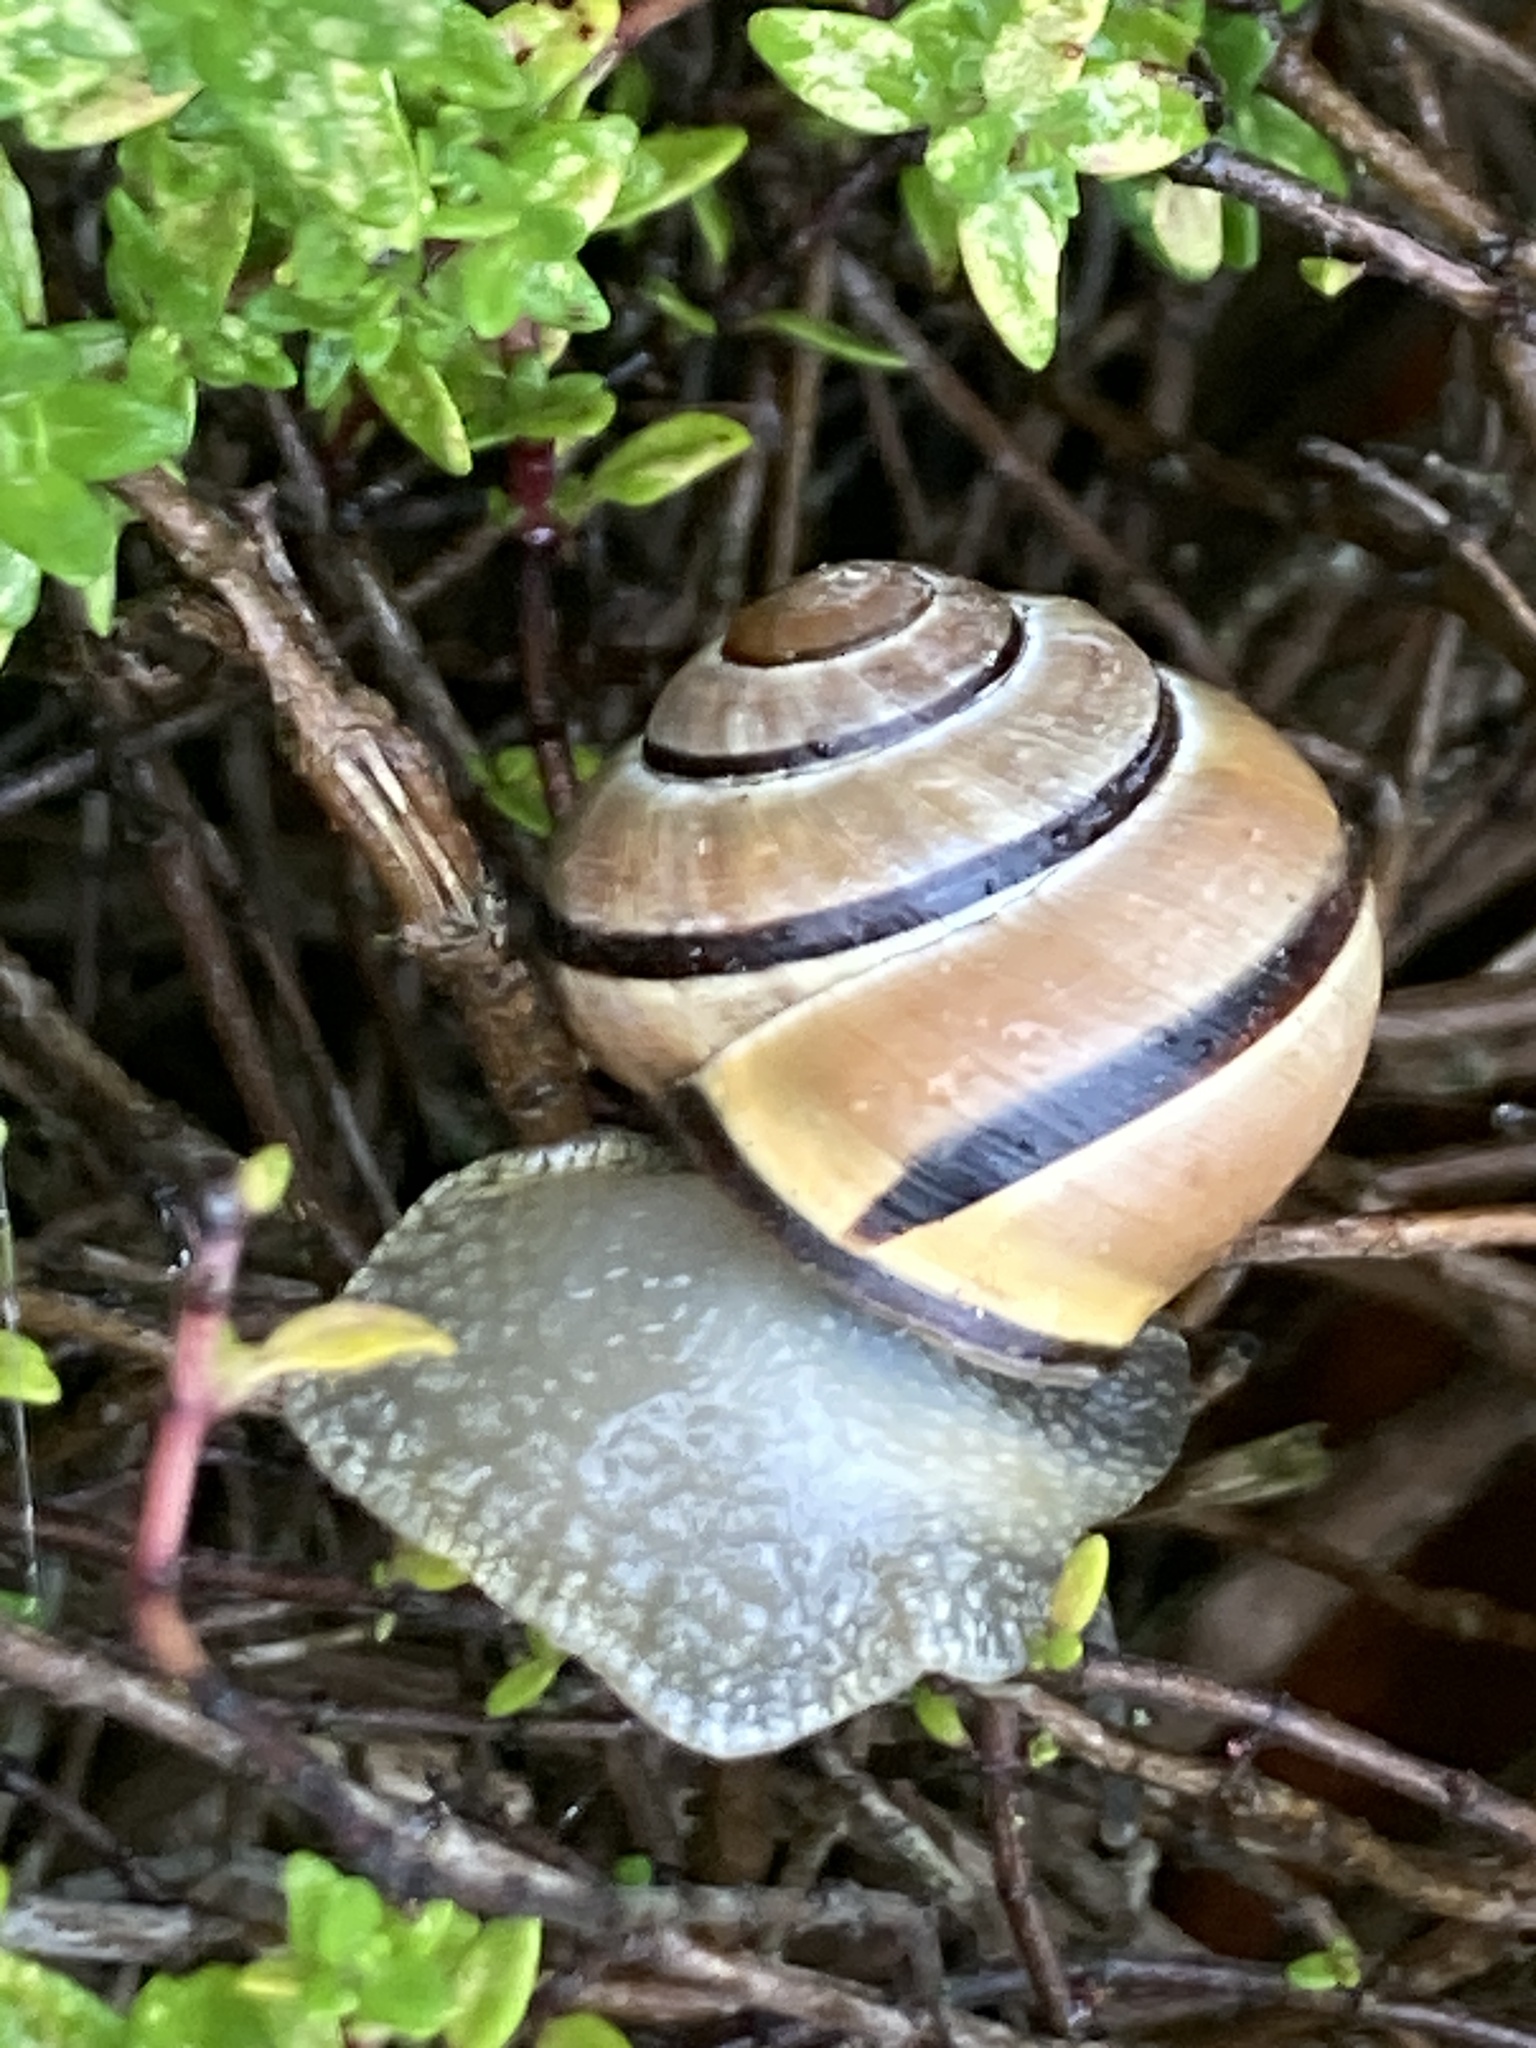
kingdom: Animalia
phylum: Mollusca
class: Gastropoda
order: Stylommatophora
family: Helicidae
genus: Cepaea
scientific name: Cepaea nemoralis
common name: Grovesnail
